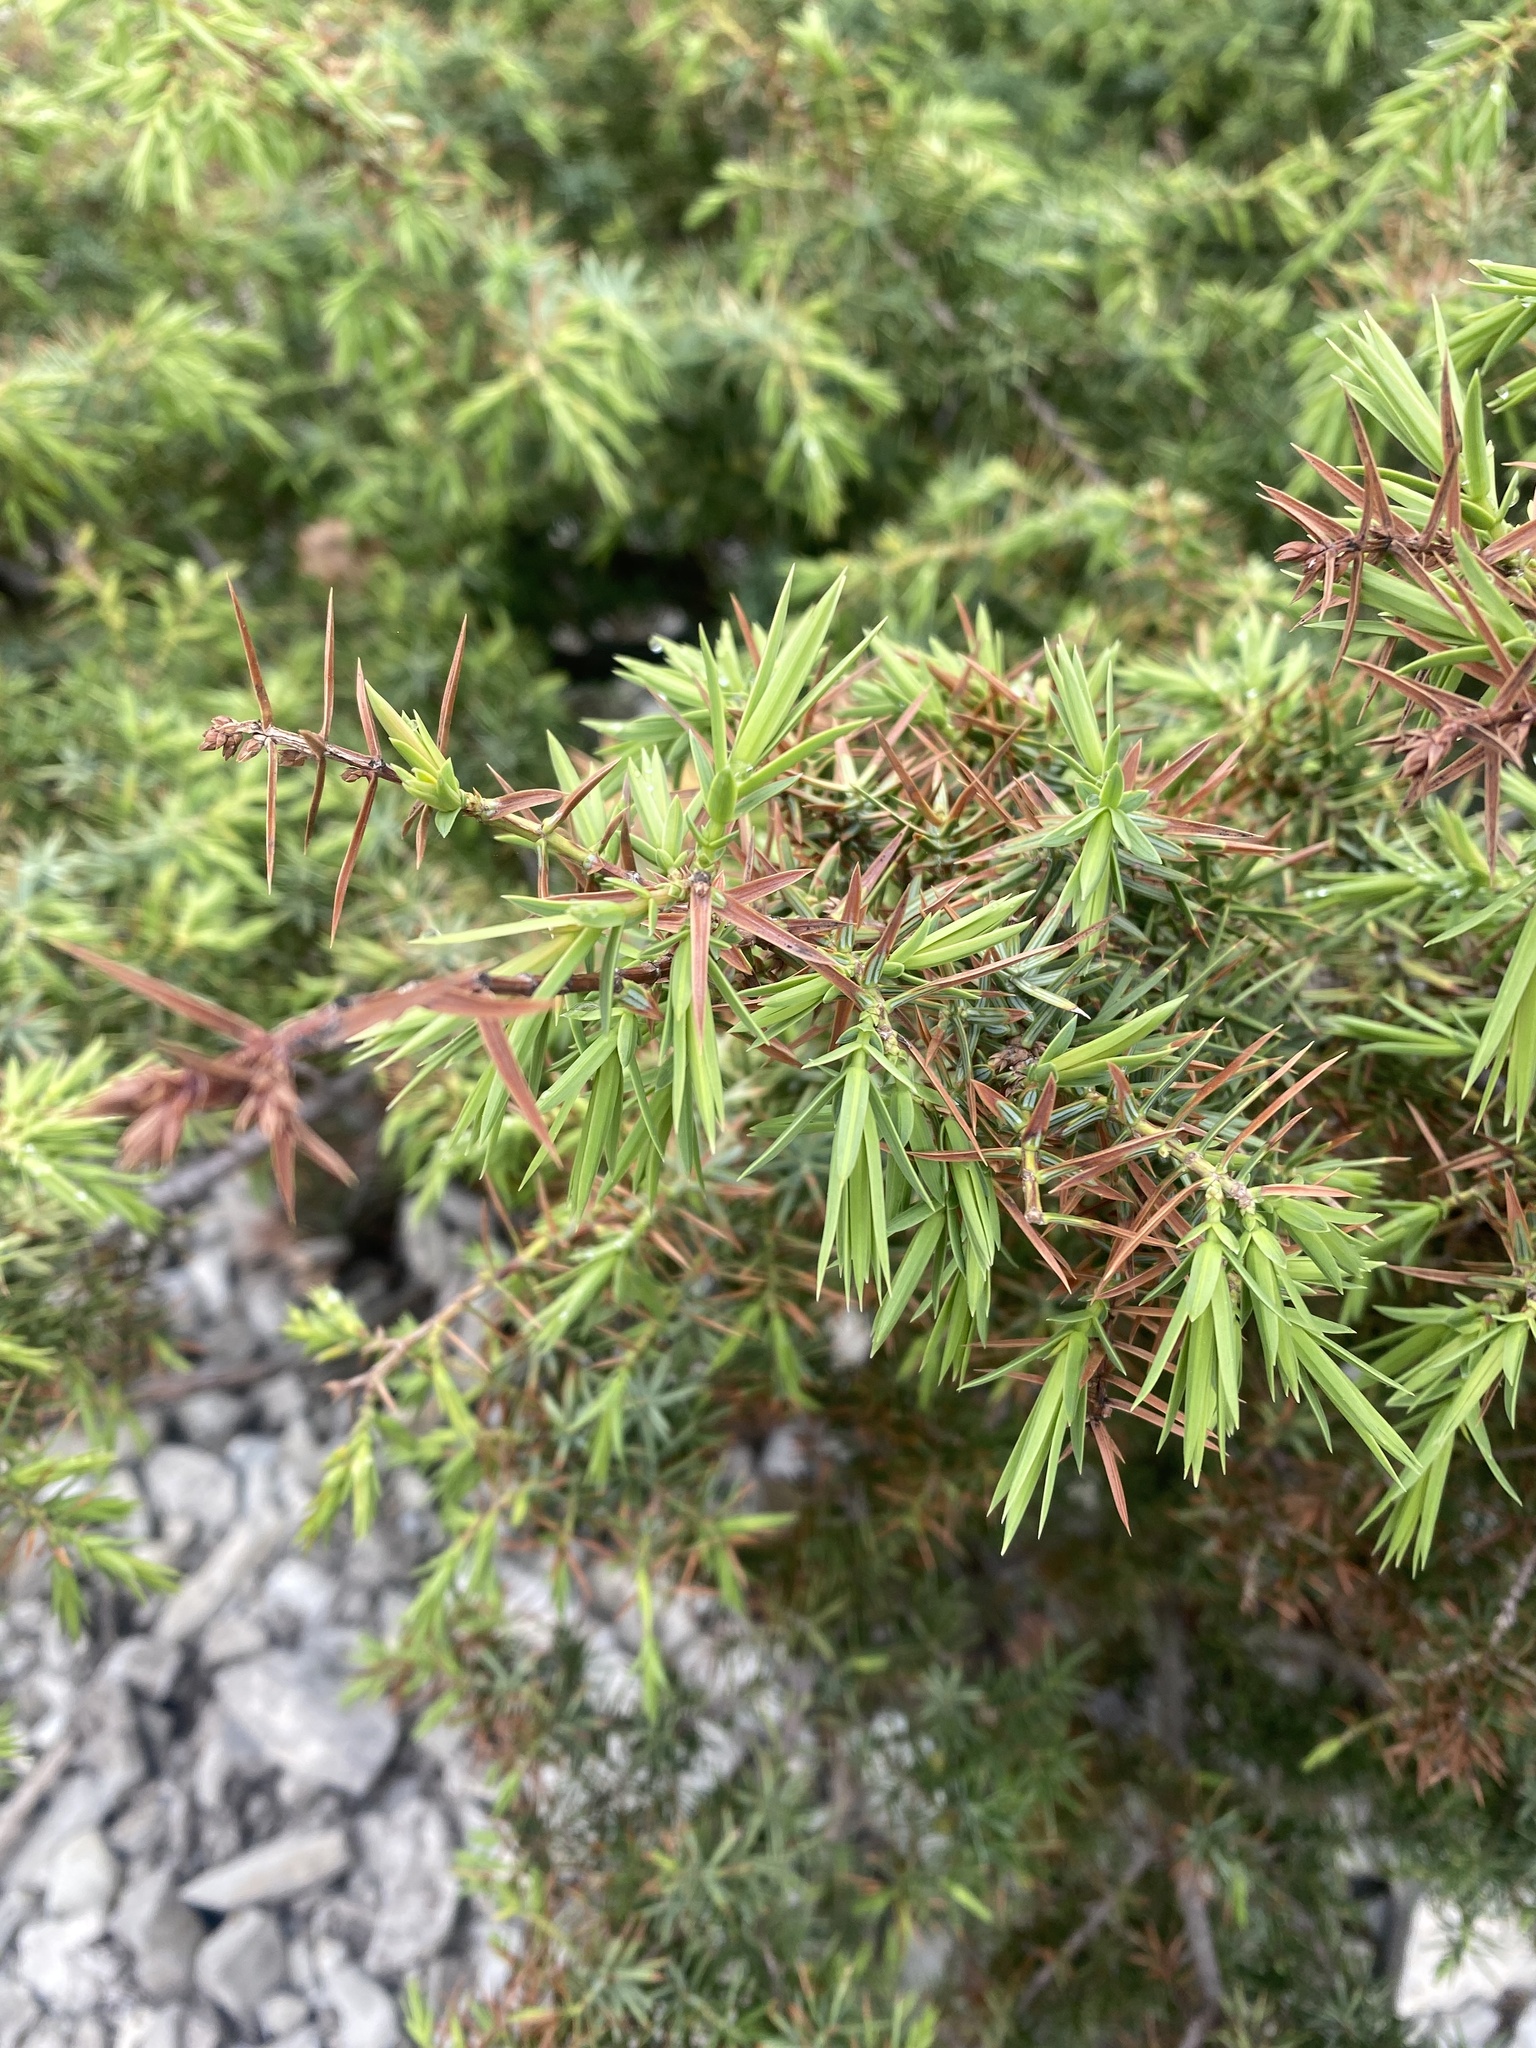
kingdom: Plantae
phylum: Tracheophyta
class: Pinopsida
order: Pinales
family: Cupressaceae
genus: Juniperus
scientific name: Juniperus oxycedrus
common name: Prickly juniper
